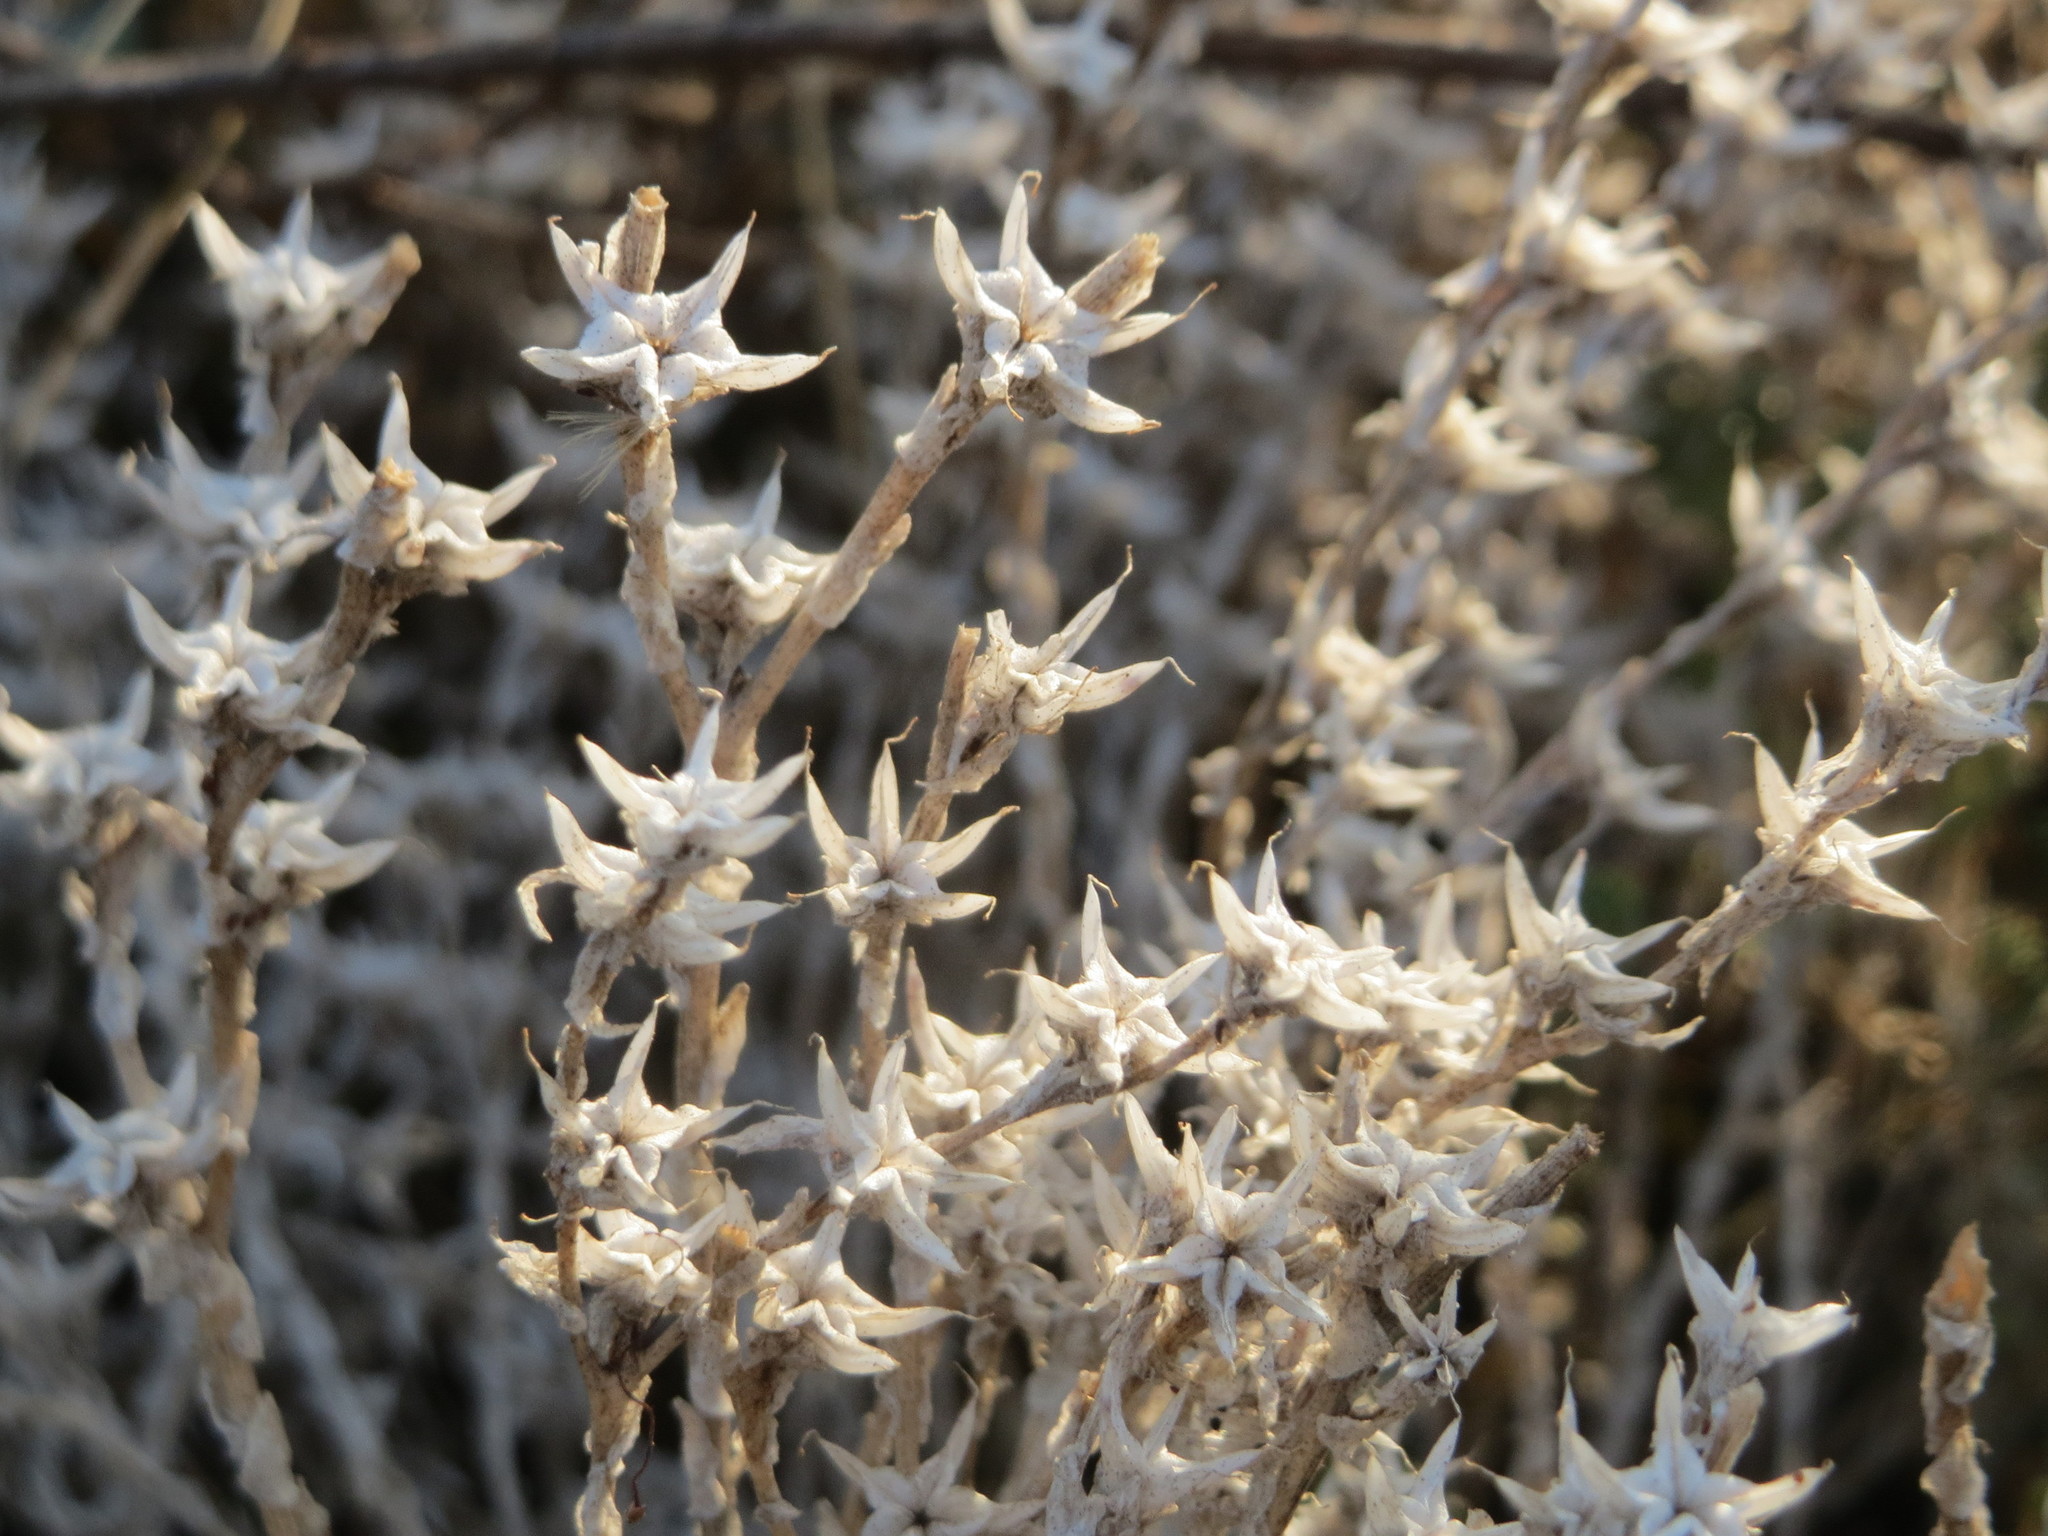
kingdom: Plantae
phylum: Tracheophyta
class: Magnoliopsida
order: Saxifragales
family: Crassulaceae
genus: Sedum
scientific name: Sedum acre
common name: Biting stonecrop
